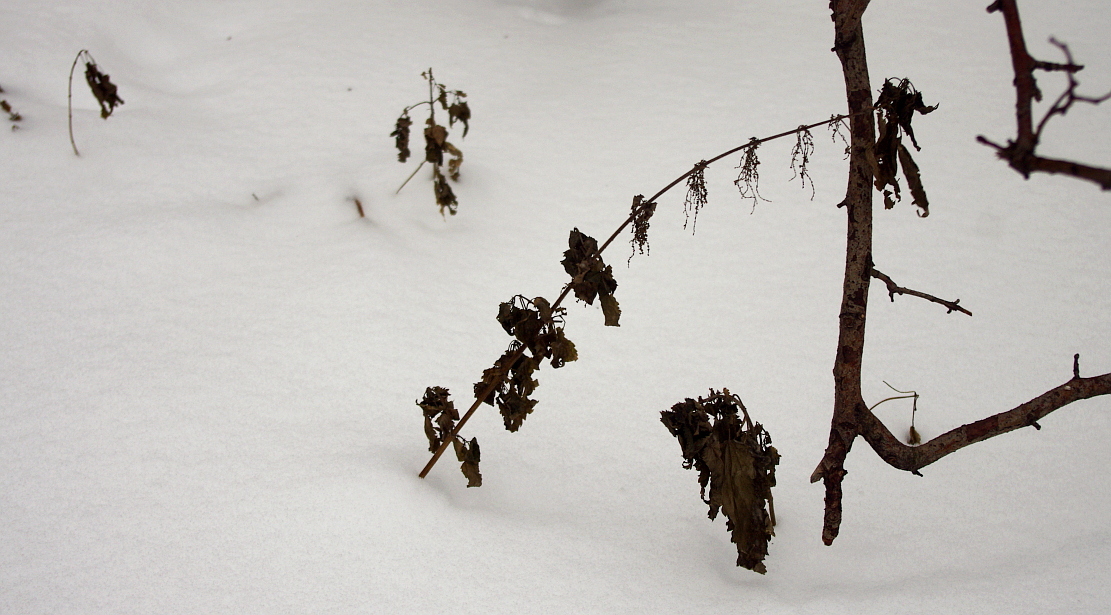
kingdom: Plantae
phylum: Tracheophyta
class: Magnoliopsida
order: Rosales
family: Urticaceae
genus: Urtica
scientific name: Urtica dioica
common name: Common nettle
